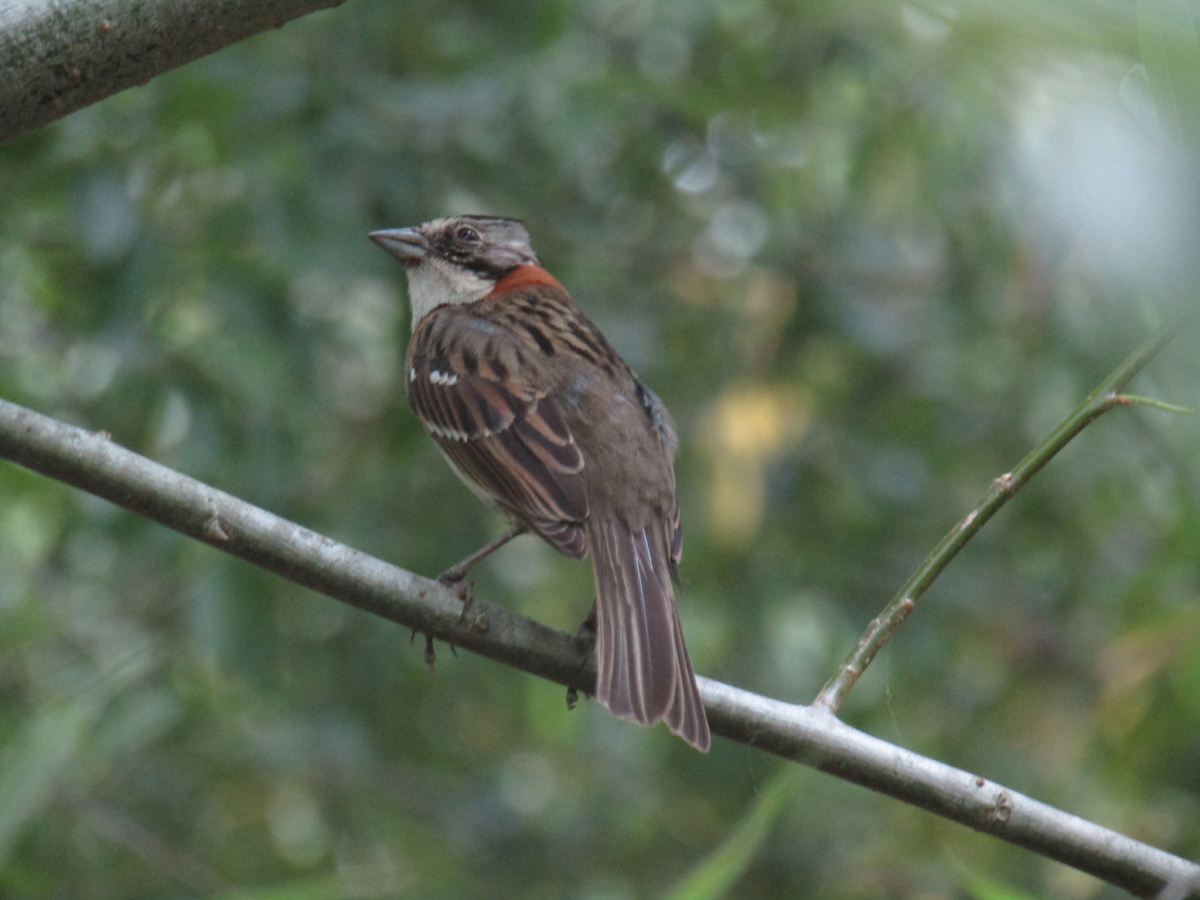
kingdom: Animalia
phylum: Chordata
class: Aves
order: Passeriformes
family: Passerellidae
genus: Zonotrichia
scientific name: Zonotrichia capensis
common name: Rufous-collared sparrow
